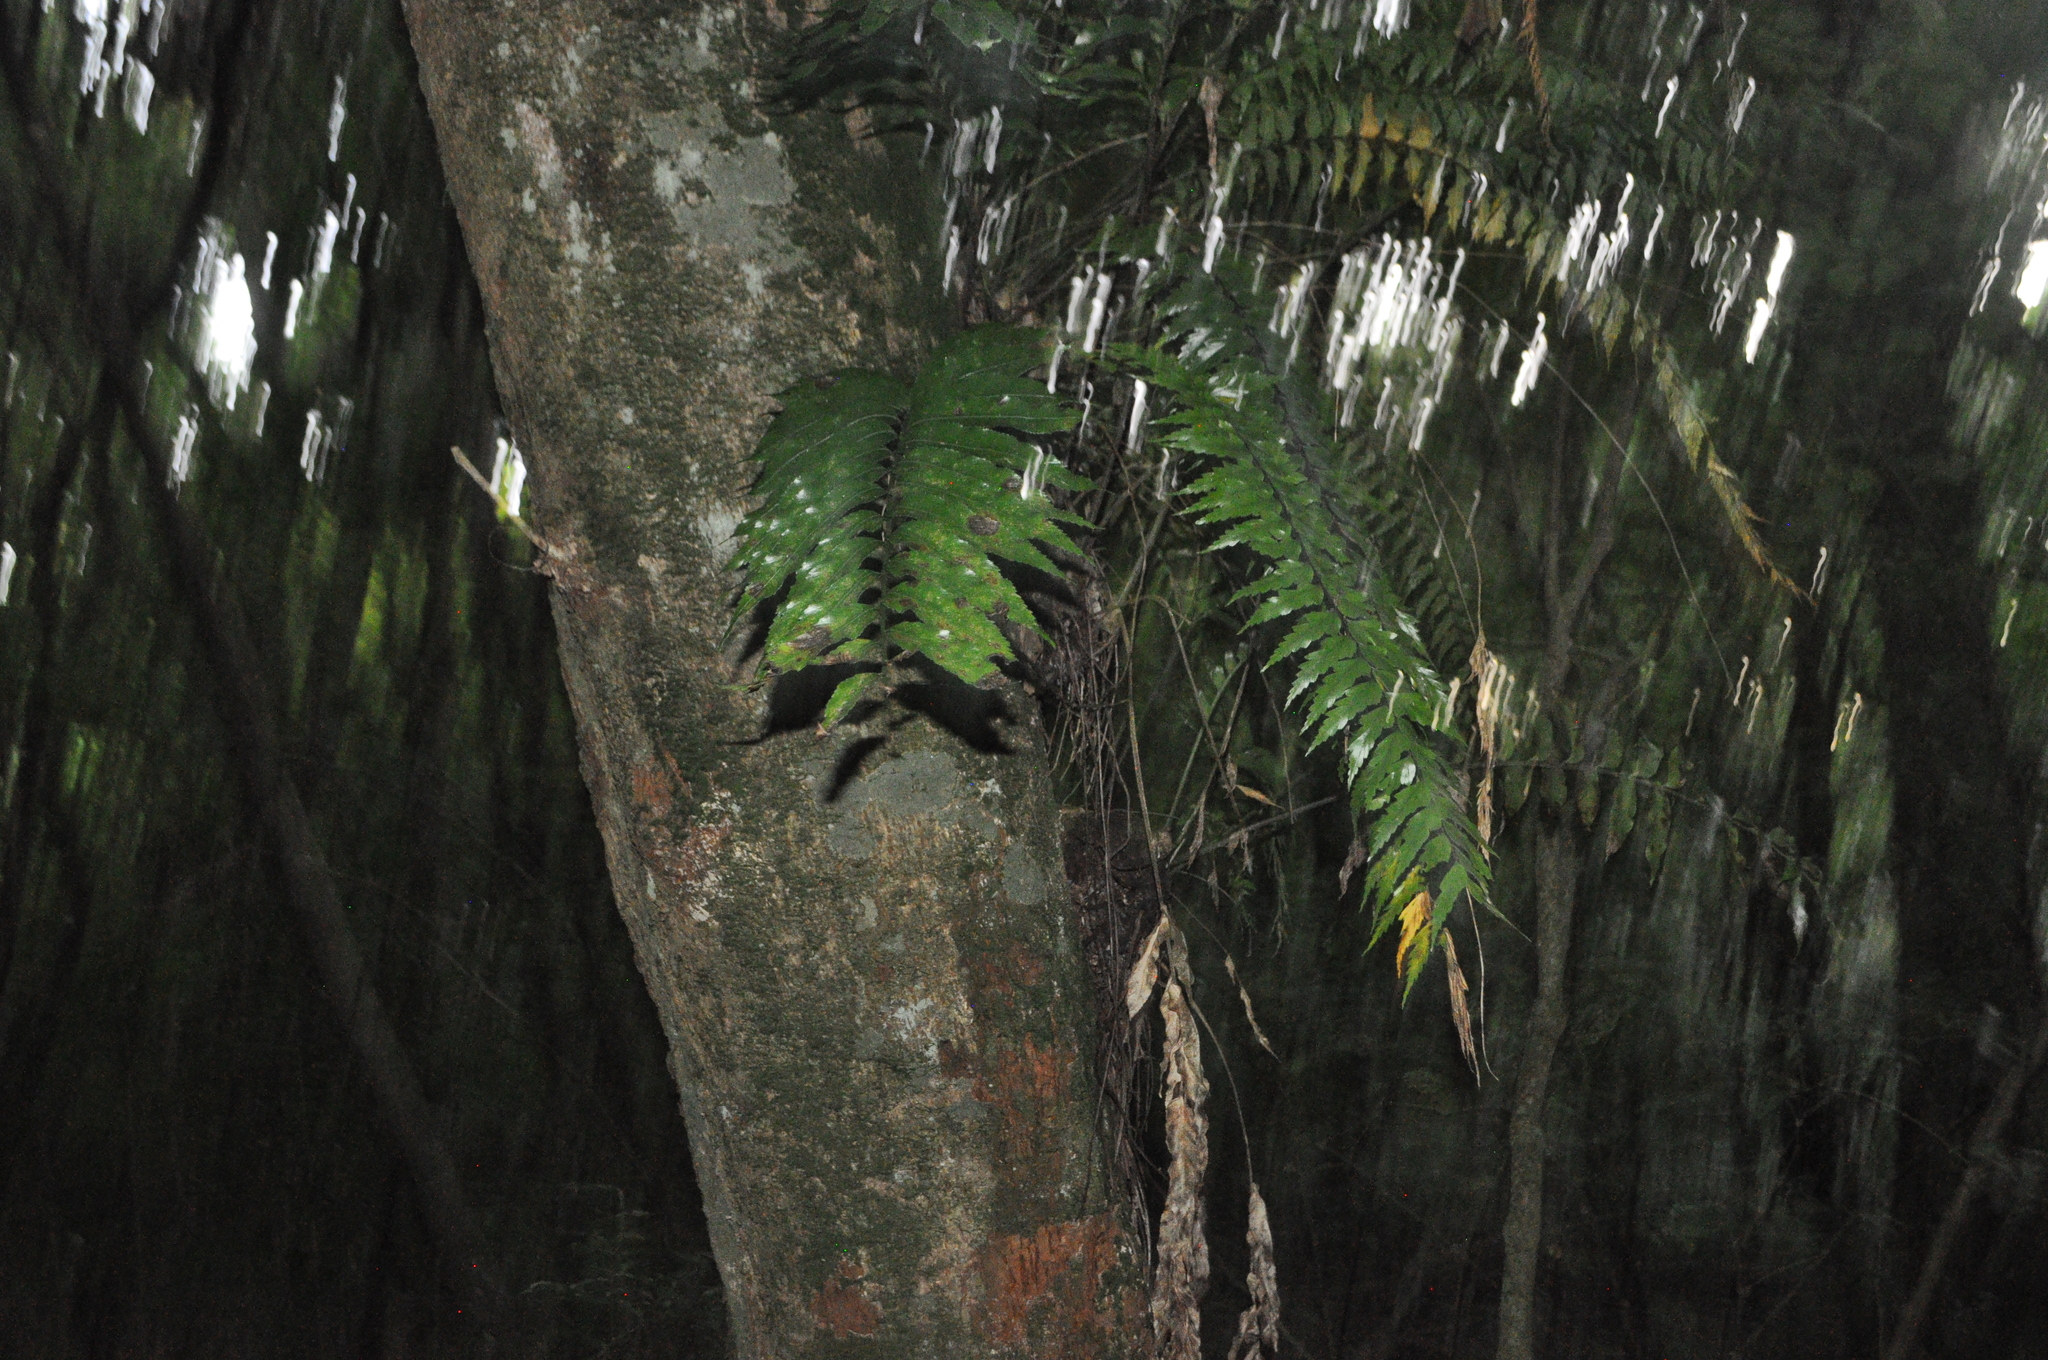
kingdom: Plantae
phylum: Tracheophyta
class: Polypodiopsida
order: Polypodiales
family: Aspleniaceae
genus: Asplenium
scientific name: Asplenium polyodon
